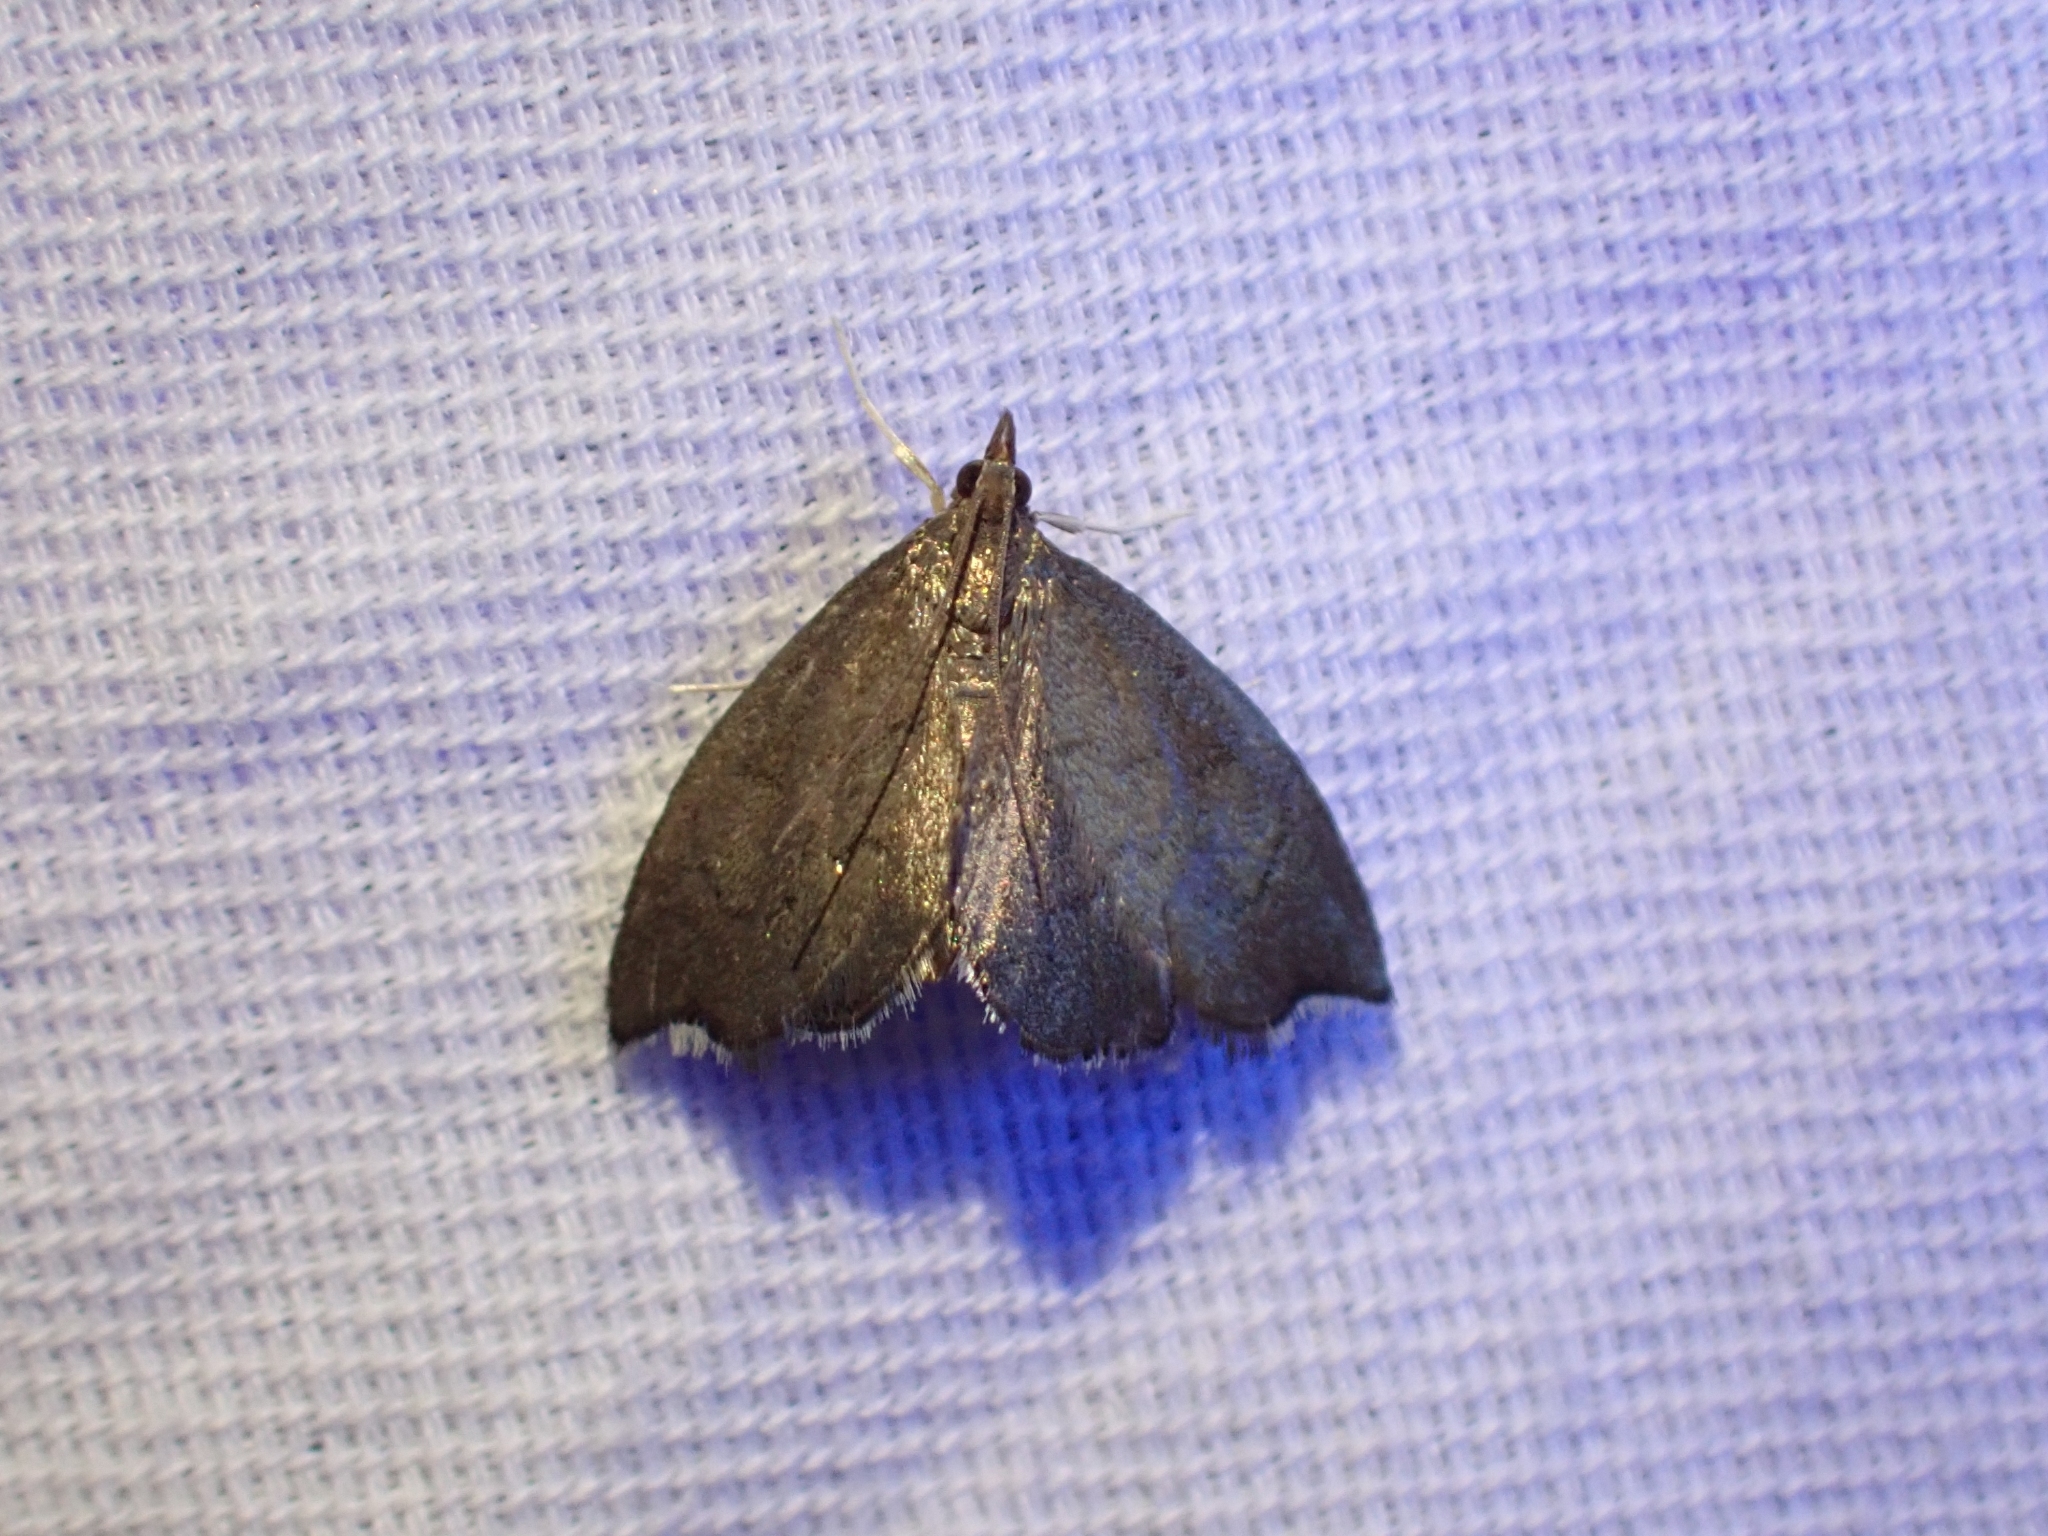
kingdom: Animalia
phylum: Arthropoda
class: Insecta
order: Lepidoptera
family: Crambidae
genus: Perispasta
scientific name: Perispasta caeculalis
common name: Titian peale's moth
